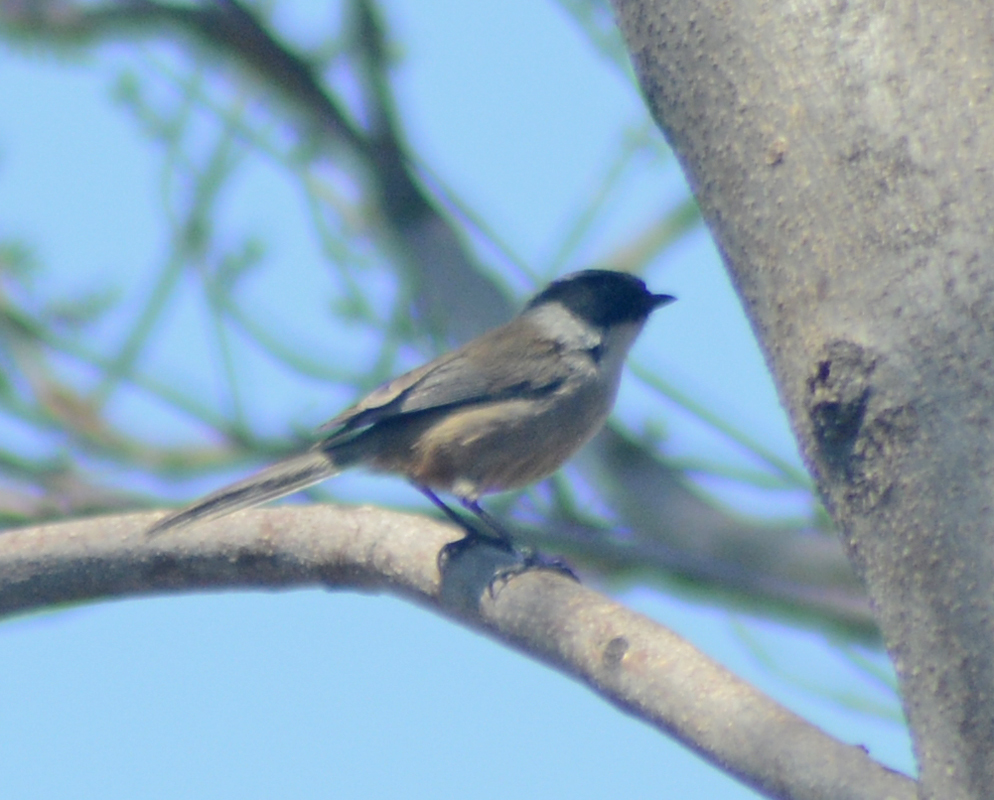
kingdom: Animalia
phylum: Chordata
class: Aves
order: Passeriformes
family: Aegithalidae
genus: Psaltriparus
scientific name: Psaltriparus minimus
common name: American bushtit
